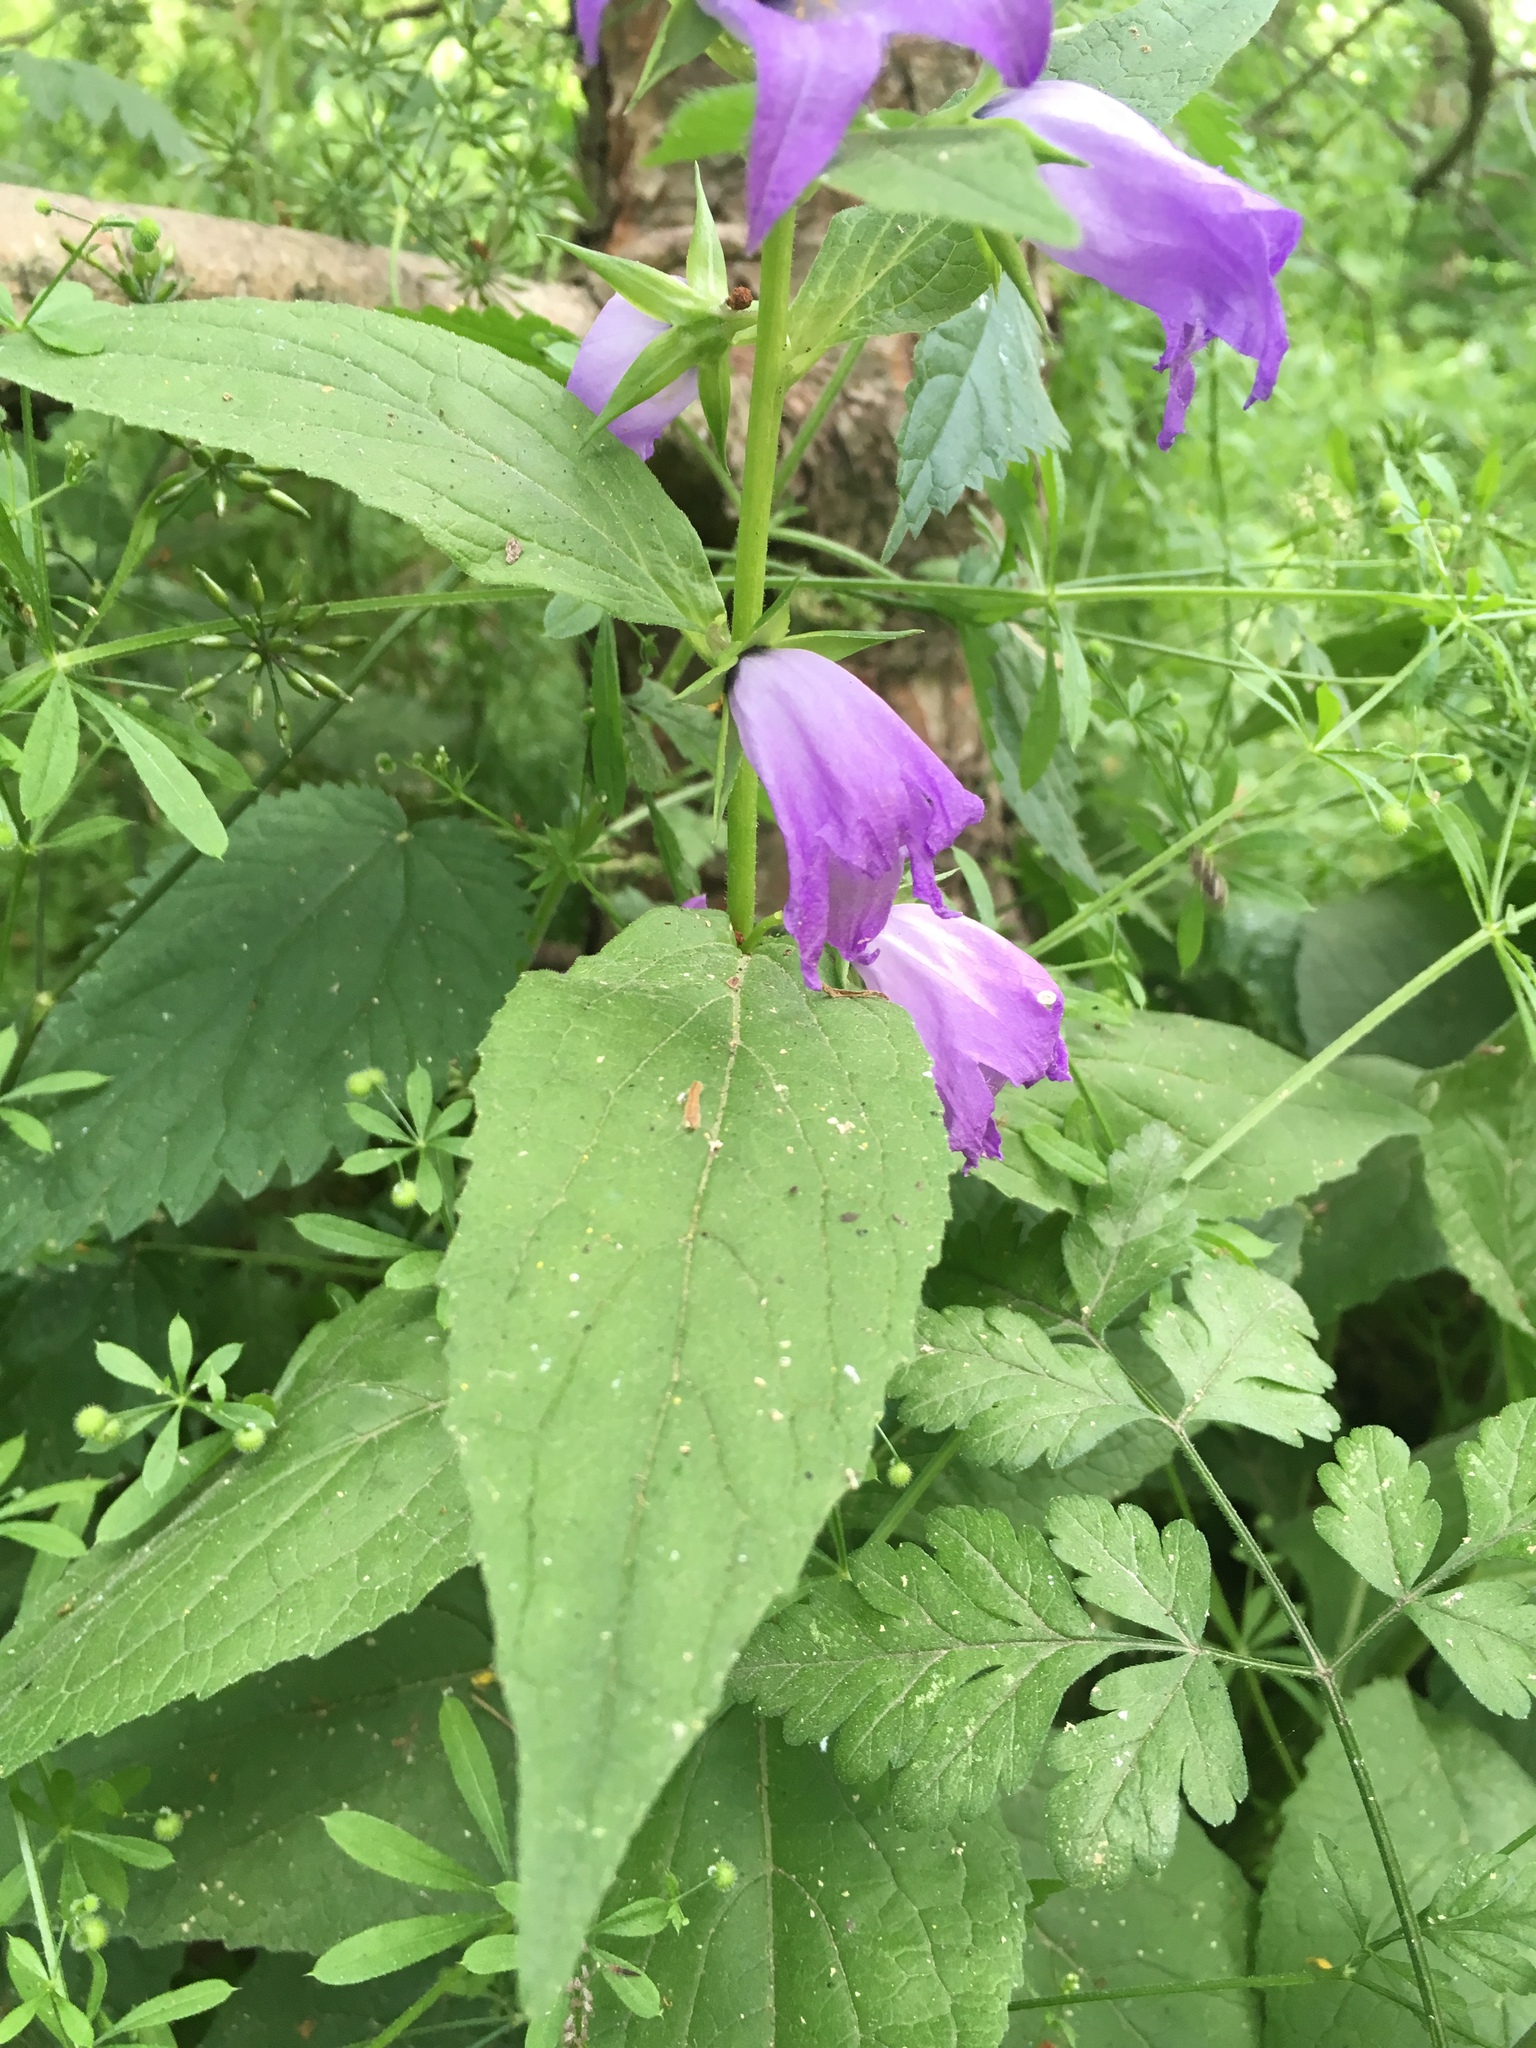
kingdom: Plantae
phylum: Tracheophyta
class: Magnoliopsida
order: Asterales
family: Campanulaceae
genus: Campanula
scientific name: Campanula latifolia
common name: Giant bellflower
